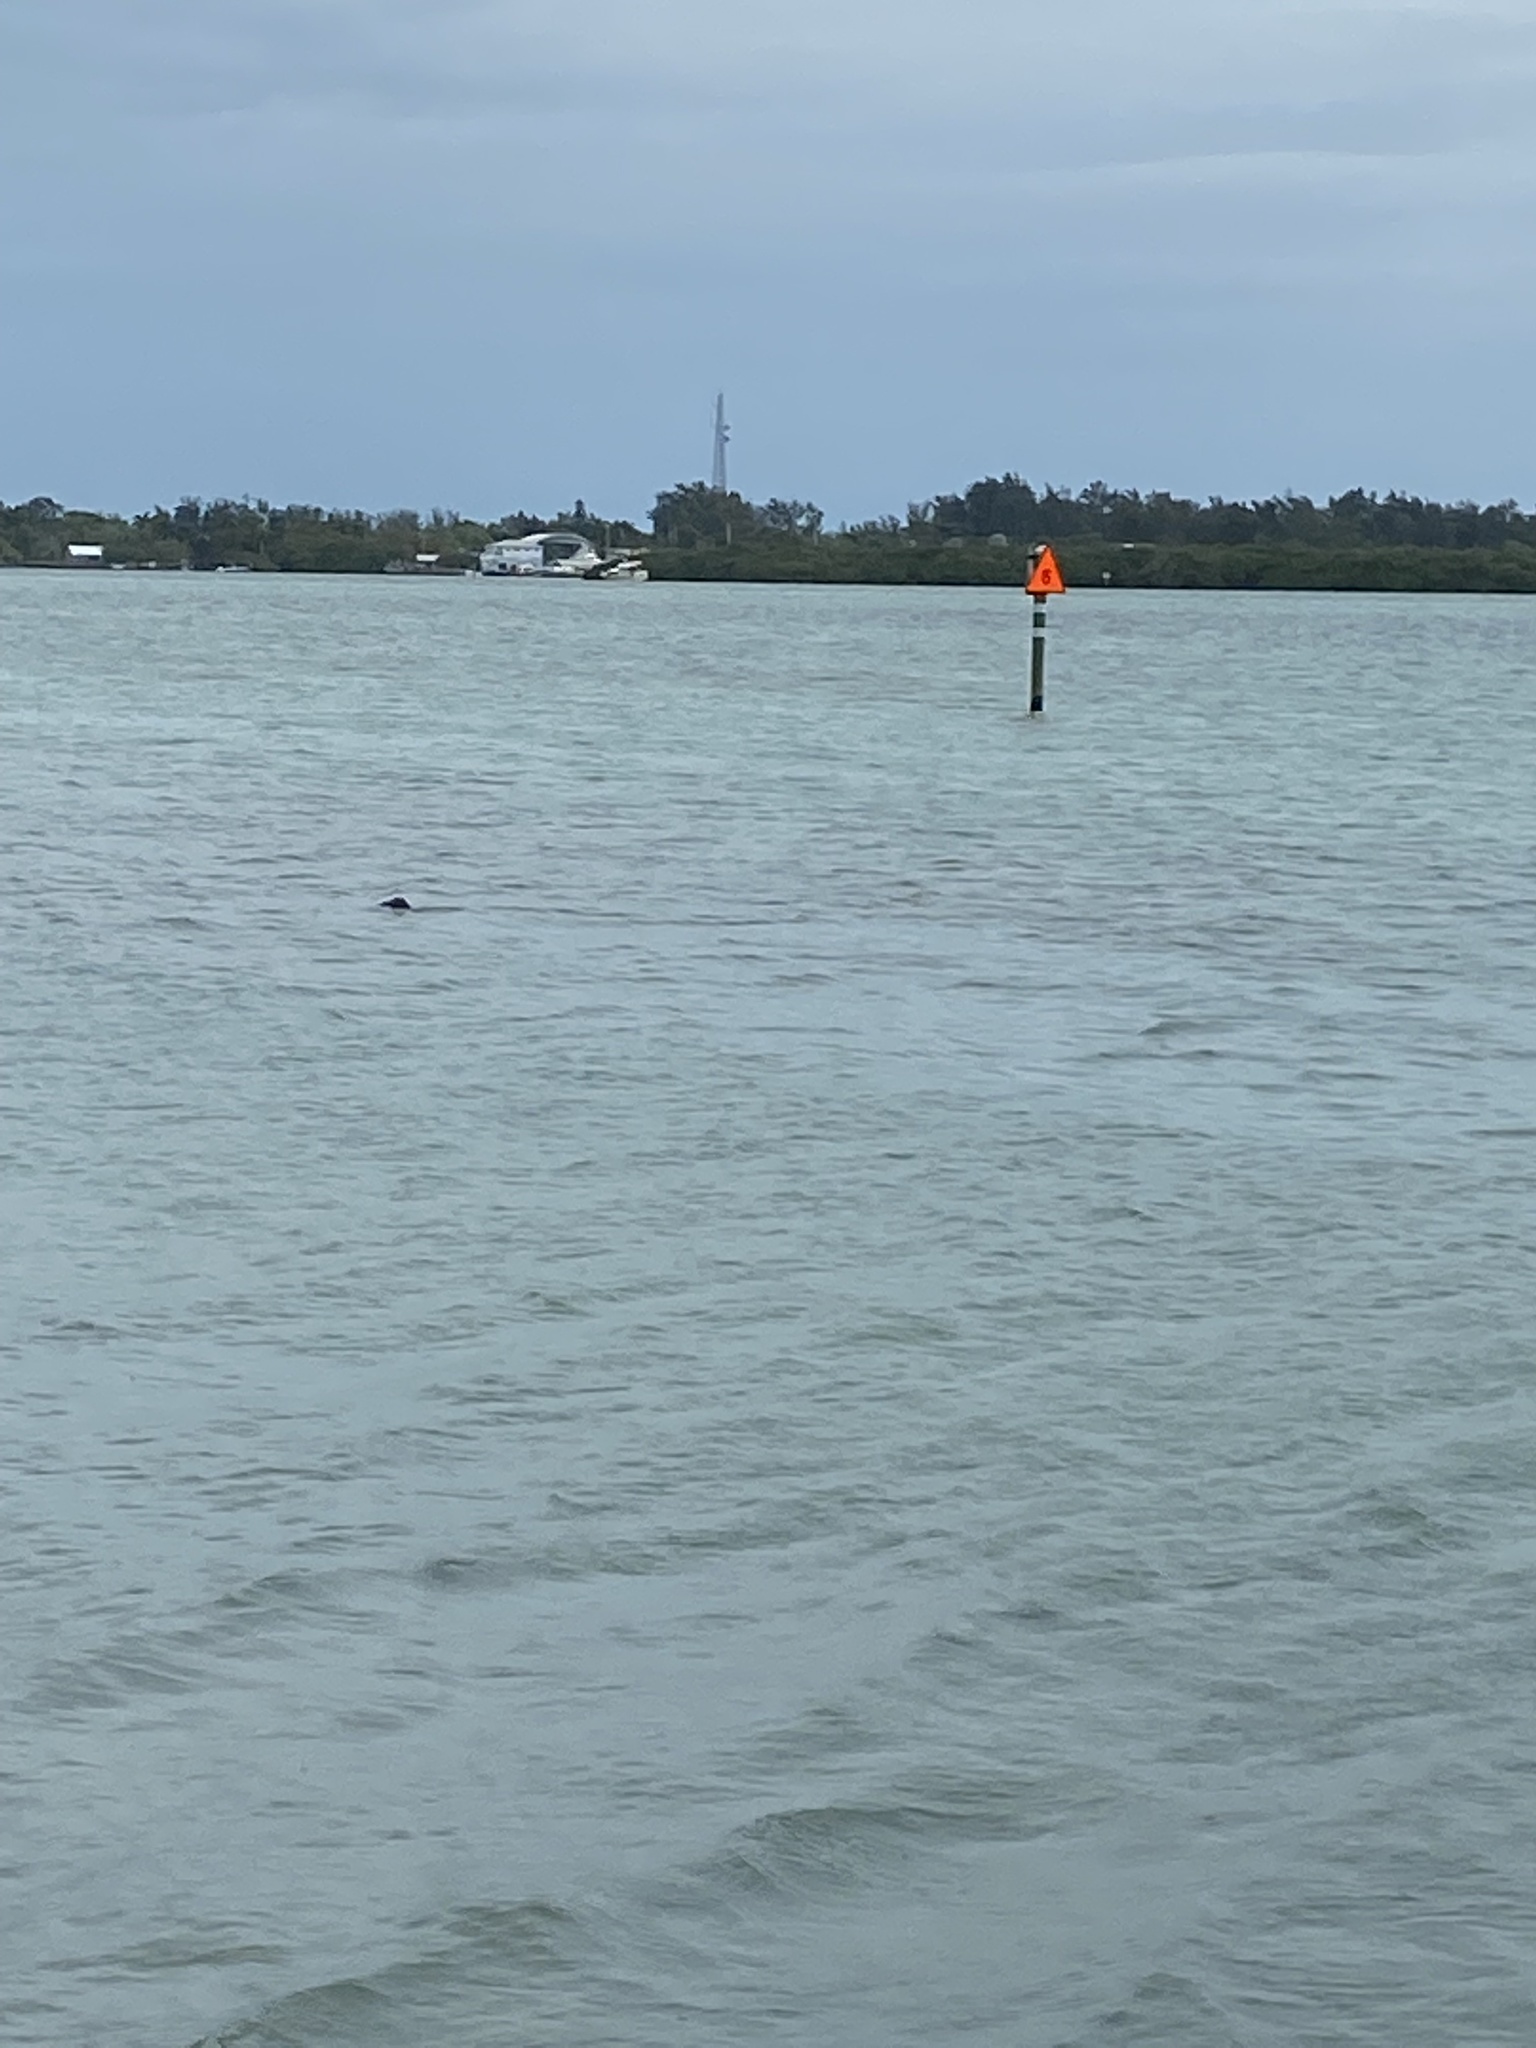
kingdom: Animalia
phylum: Chordata
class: Mammalia
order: Sirenia
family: Trichechidae
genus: Trichechus
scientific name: Trichechus manatus
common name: West indian manatee
